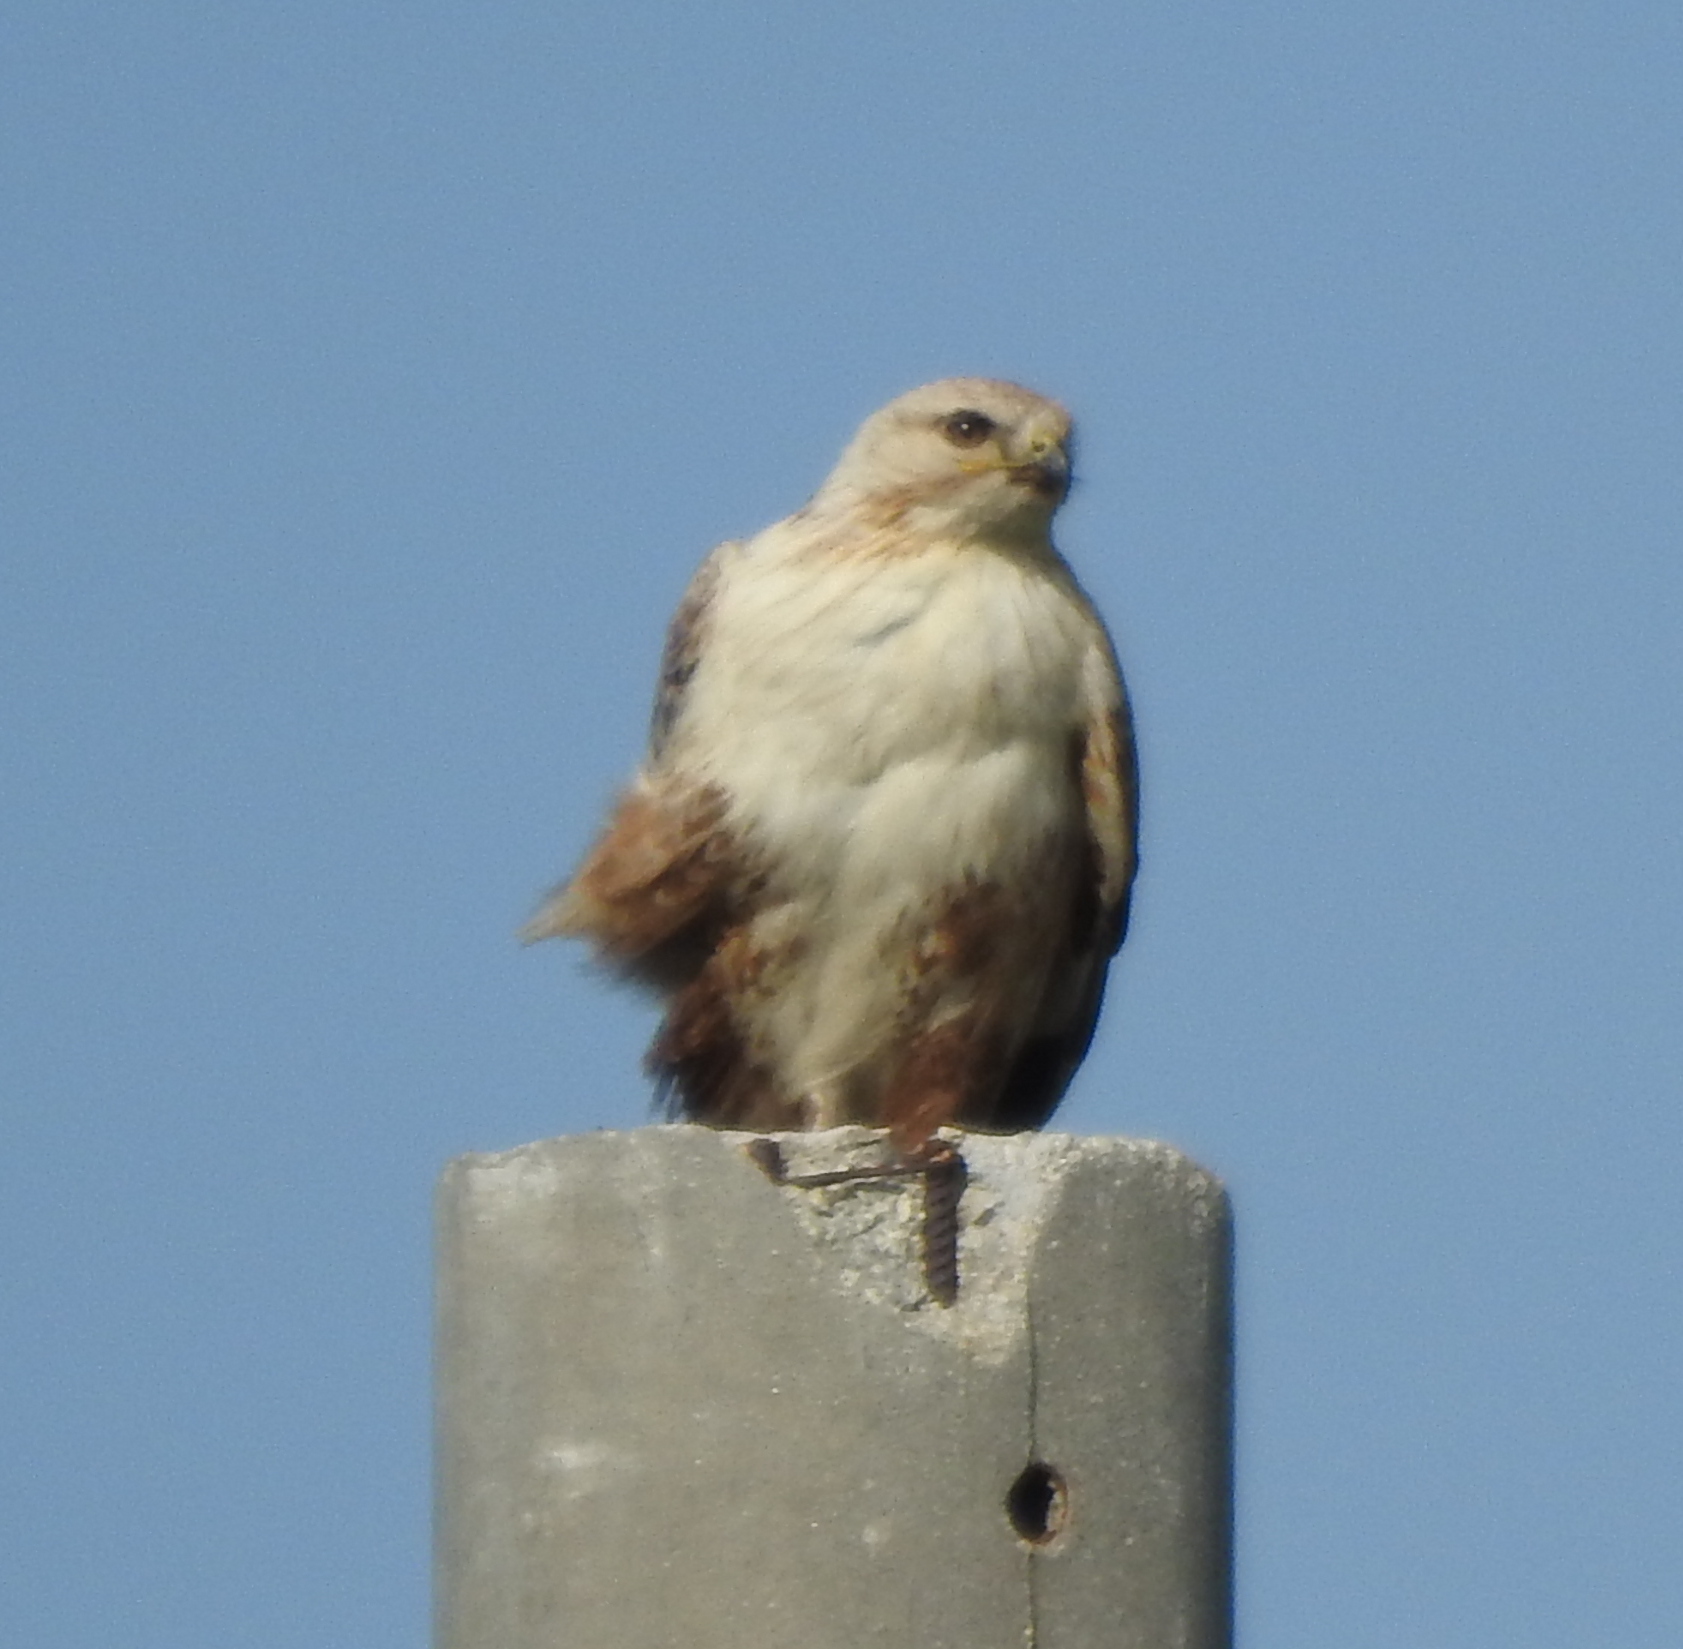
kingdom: Animalia
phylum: Chordata
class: Aves
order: Accipitriformes
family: Accipitridae
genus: Buteo
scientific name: Buteo hemilasius
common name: Upland buzzard
